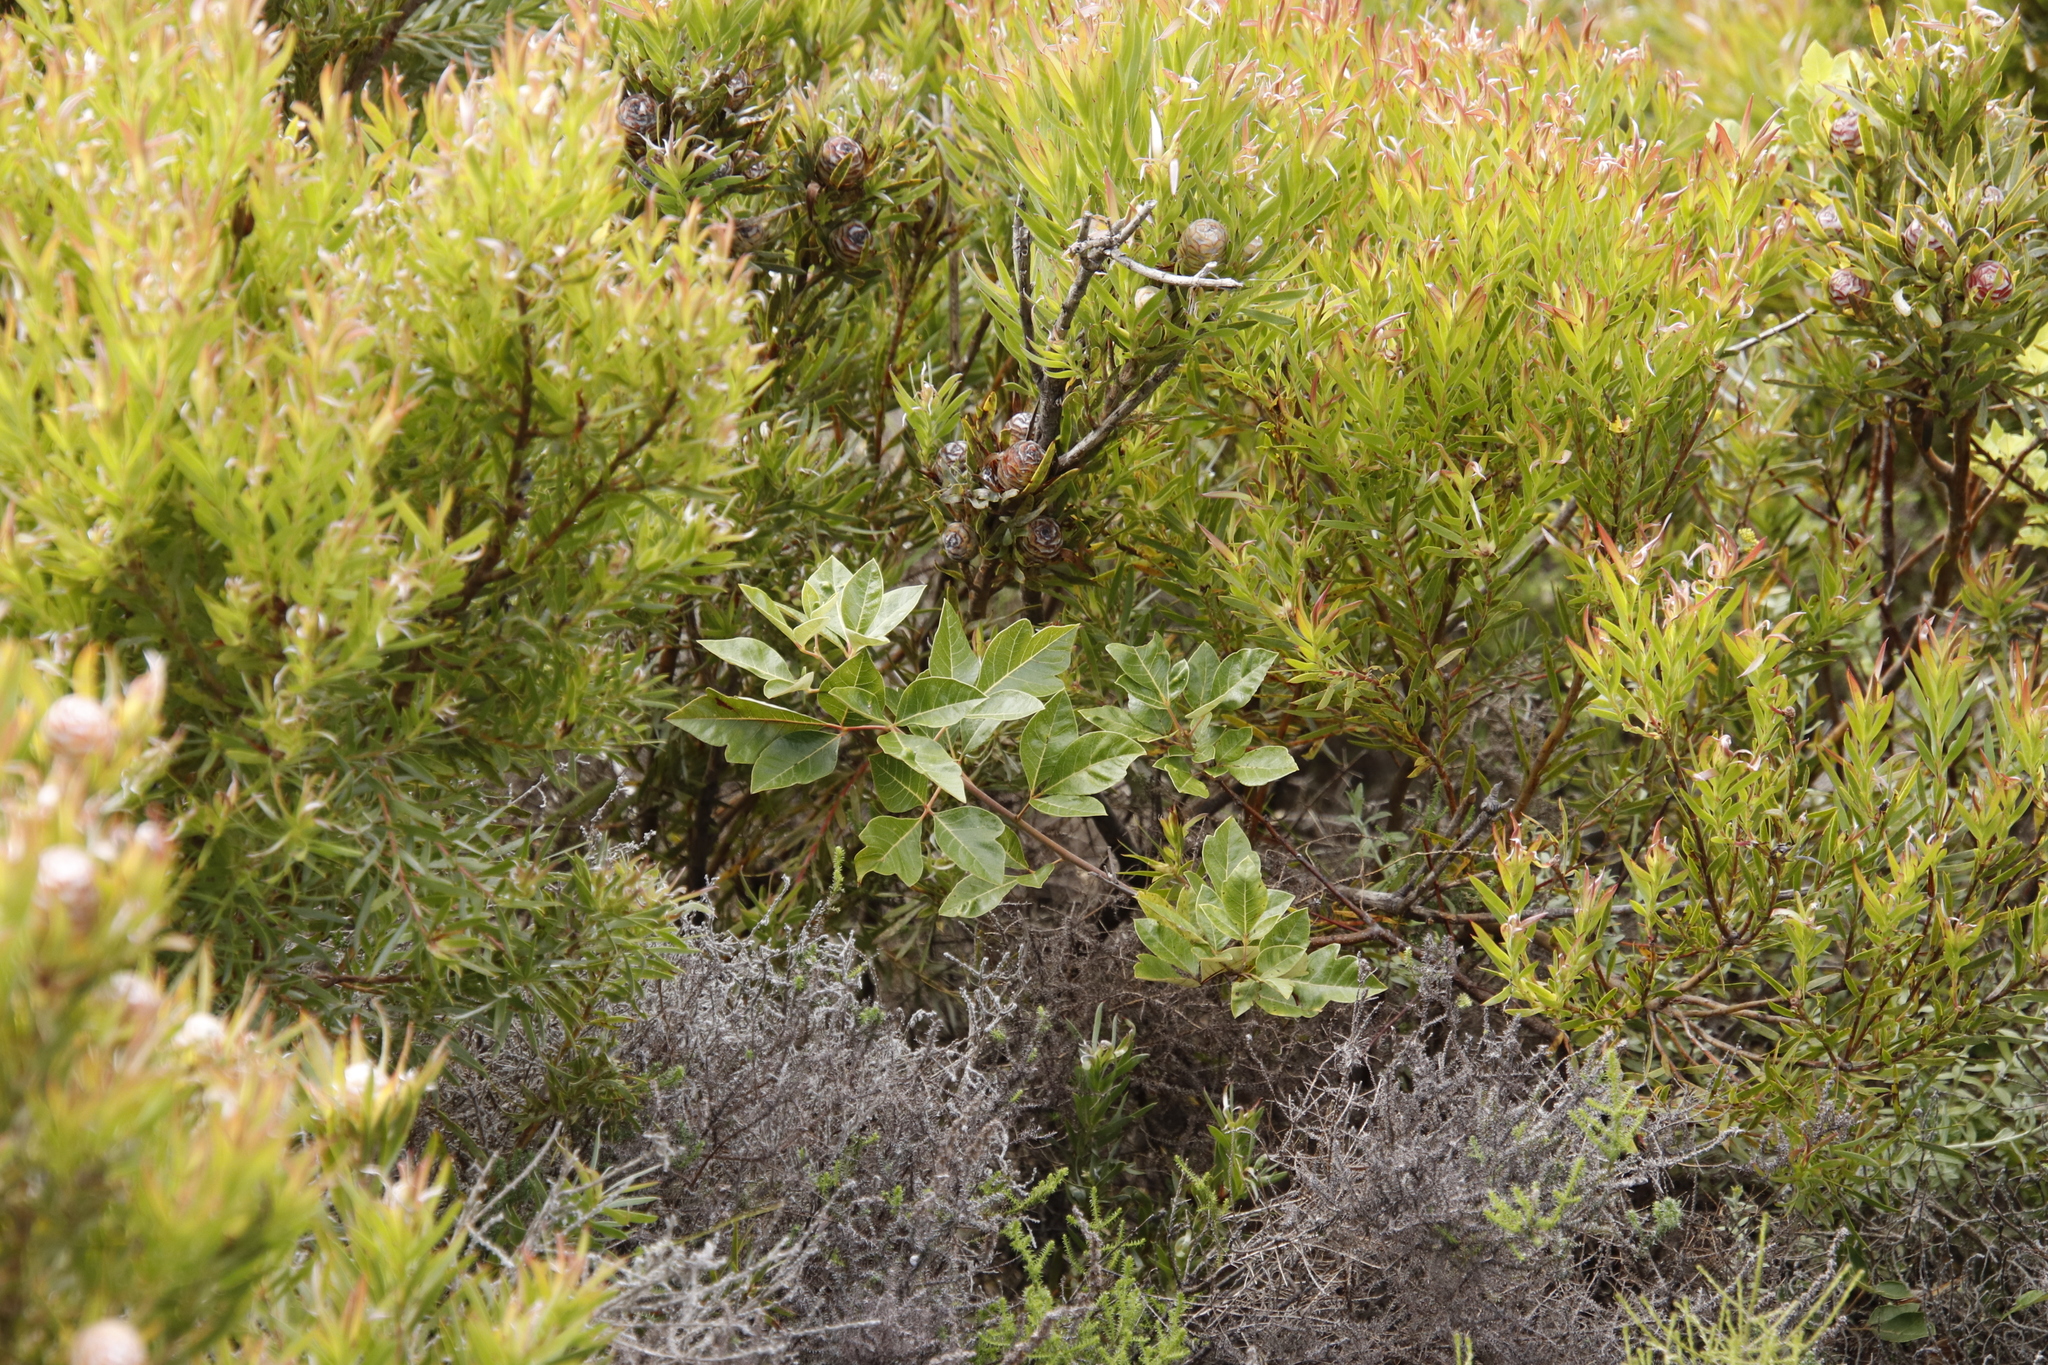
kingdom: Plantae
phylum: Tracheophyta
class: Magnoliopsida
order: Sapindales
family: Anacardiaceae
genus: Searsia
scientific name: Searsia tomentosa
